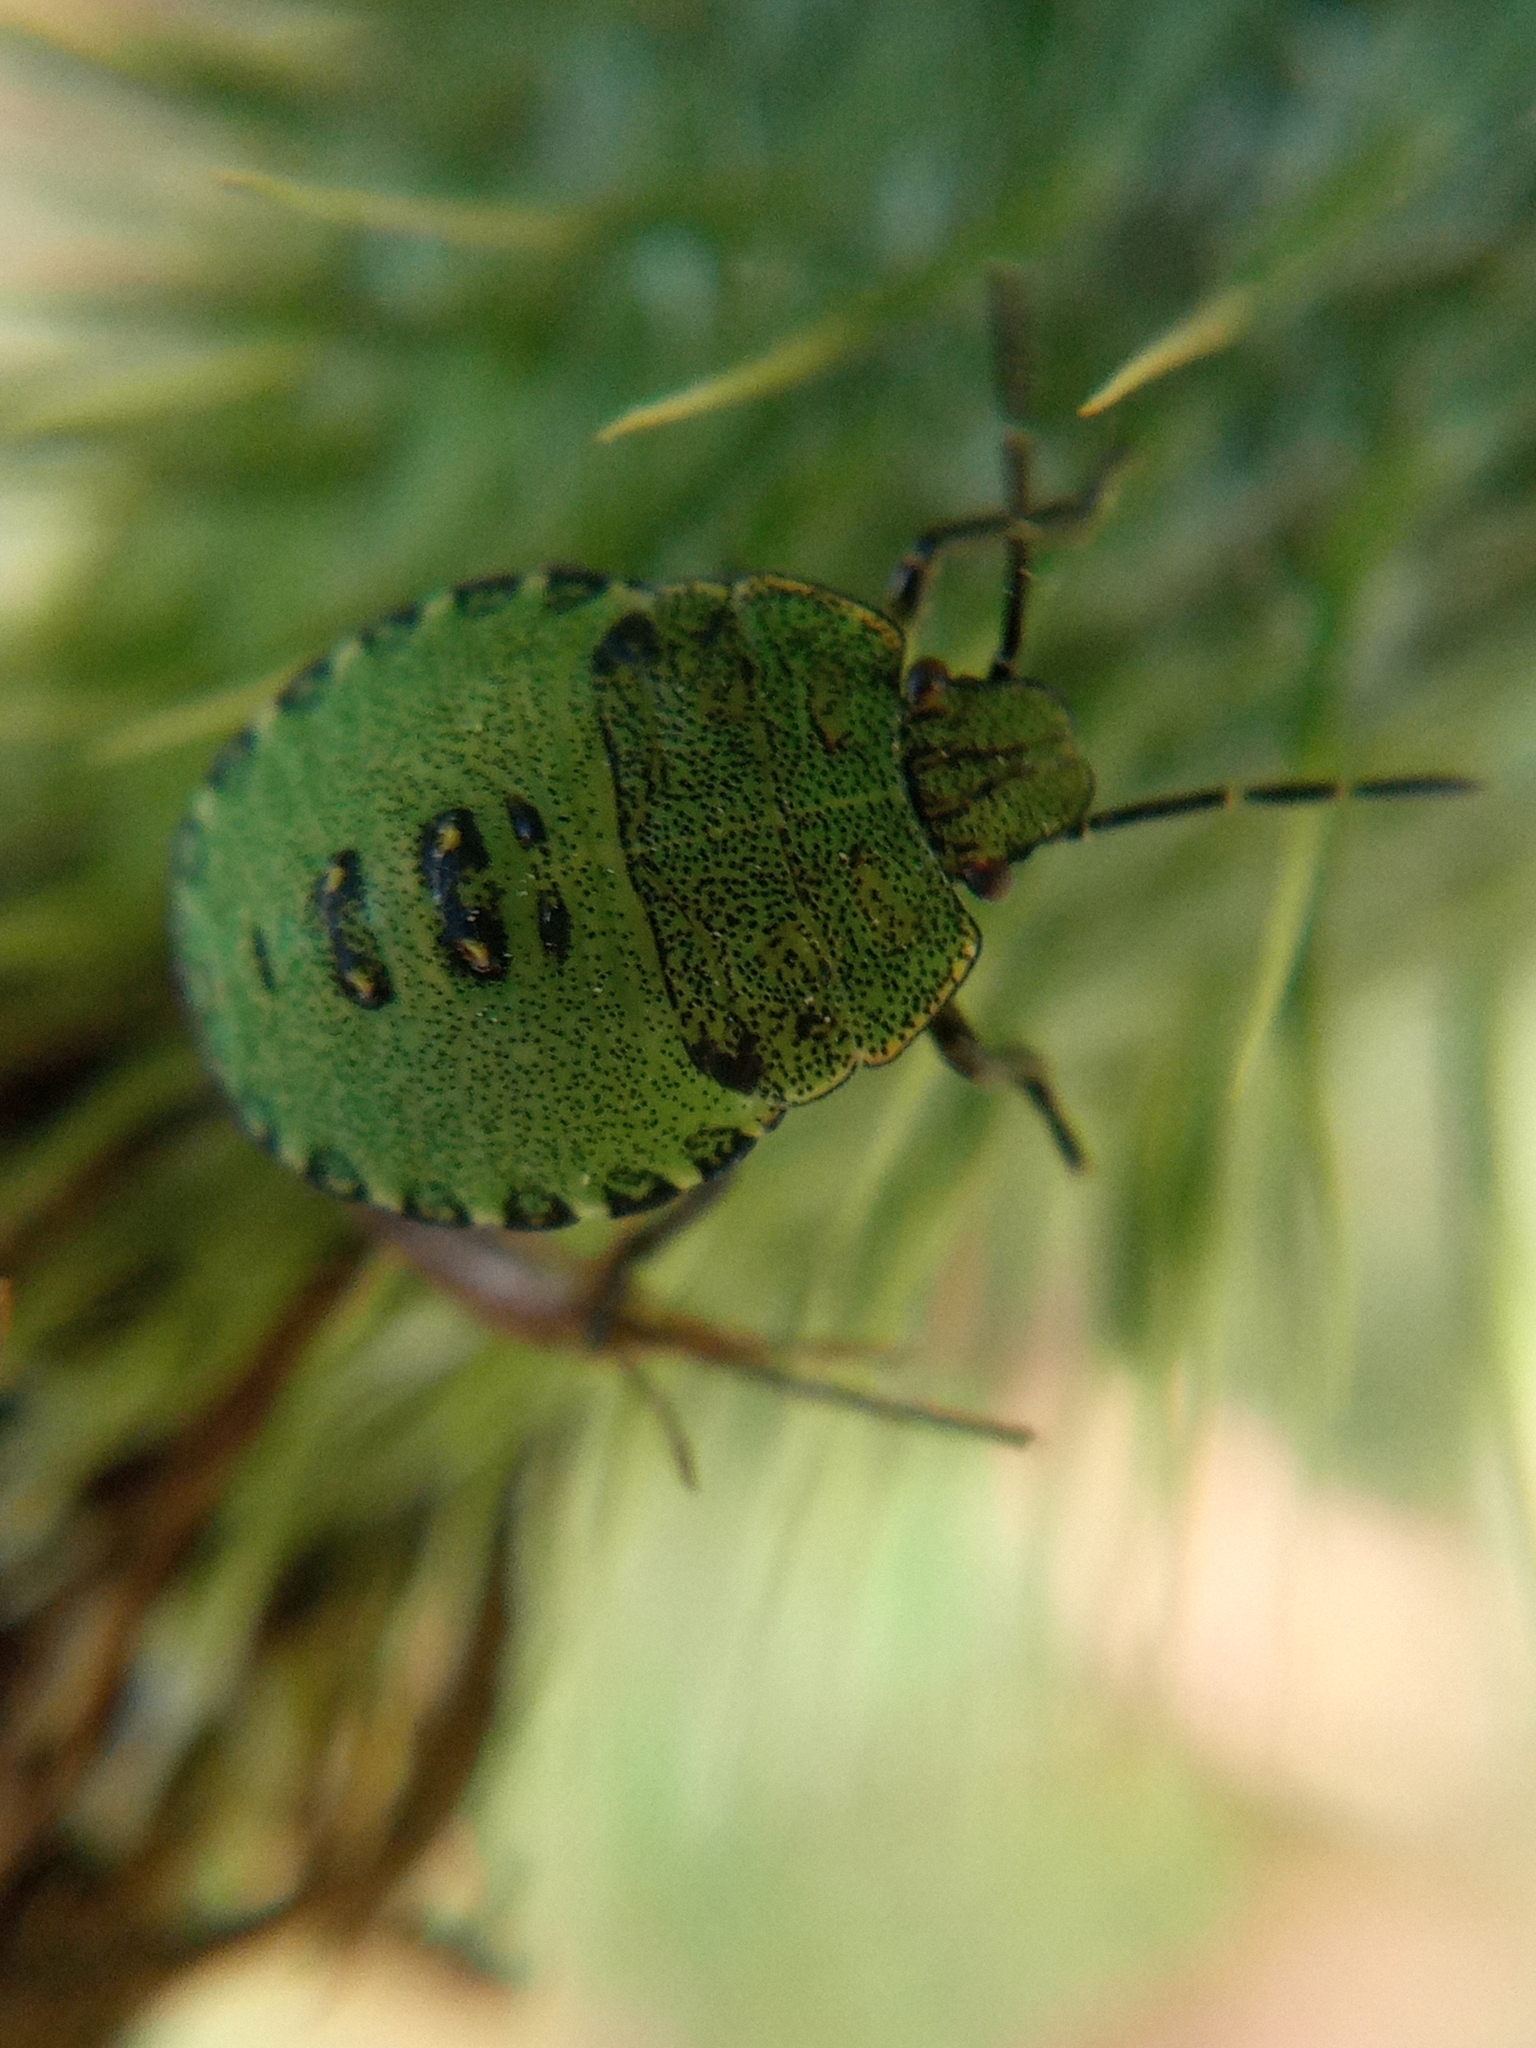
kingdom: Animalia
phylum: Arthropoda
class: Insecta
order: Hemiptera
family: Pentatomidae
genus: Palomena
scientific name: Palomena prasina
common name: Green shieldbug
